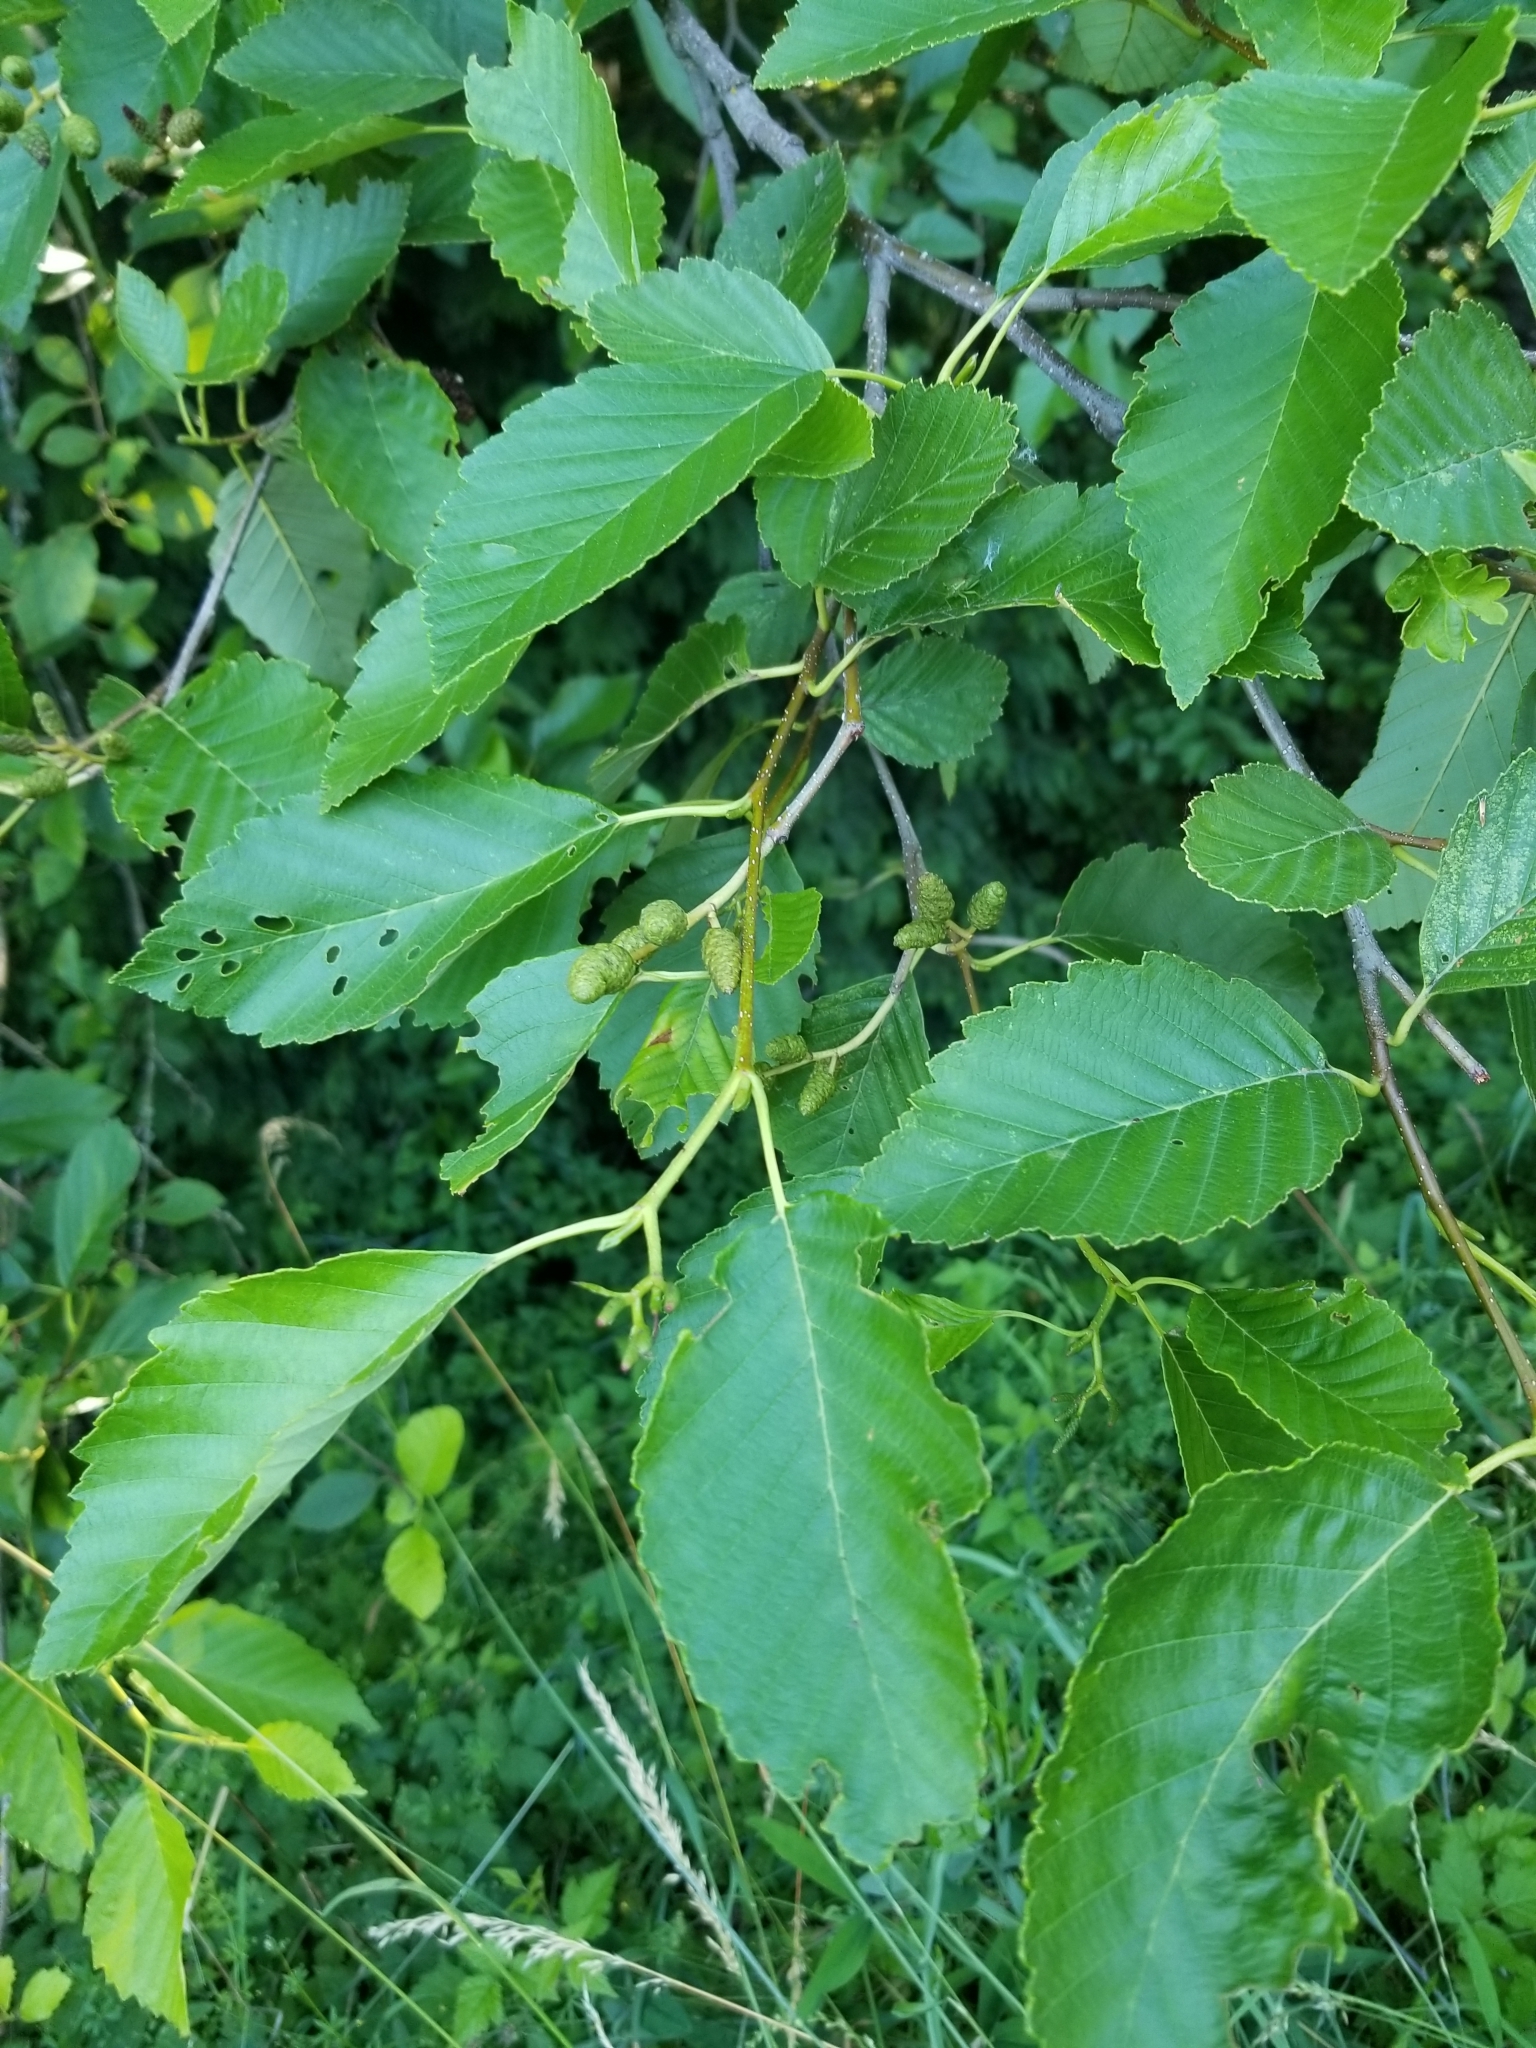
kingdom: Plantae
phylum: Tracheophyta
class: Magnoliopsida
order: Fagales
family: Betulaceae
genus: Alnus
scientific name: Alnus rubra
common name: Red alder
